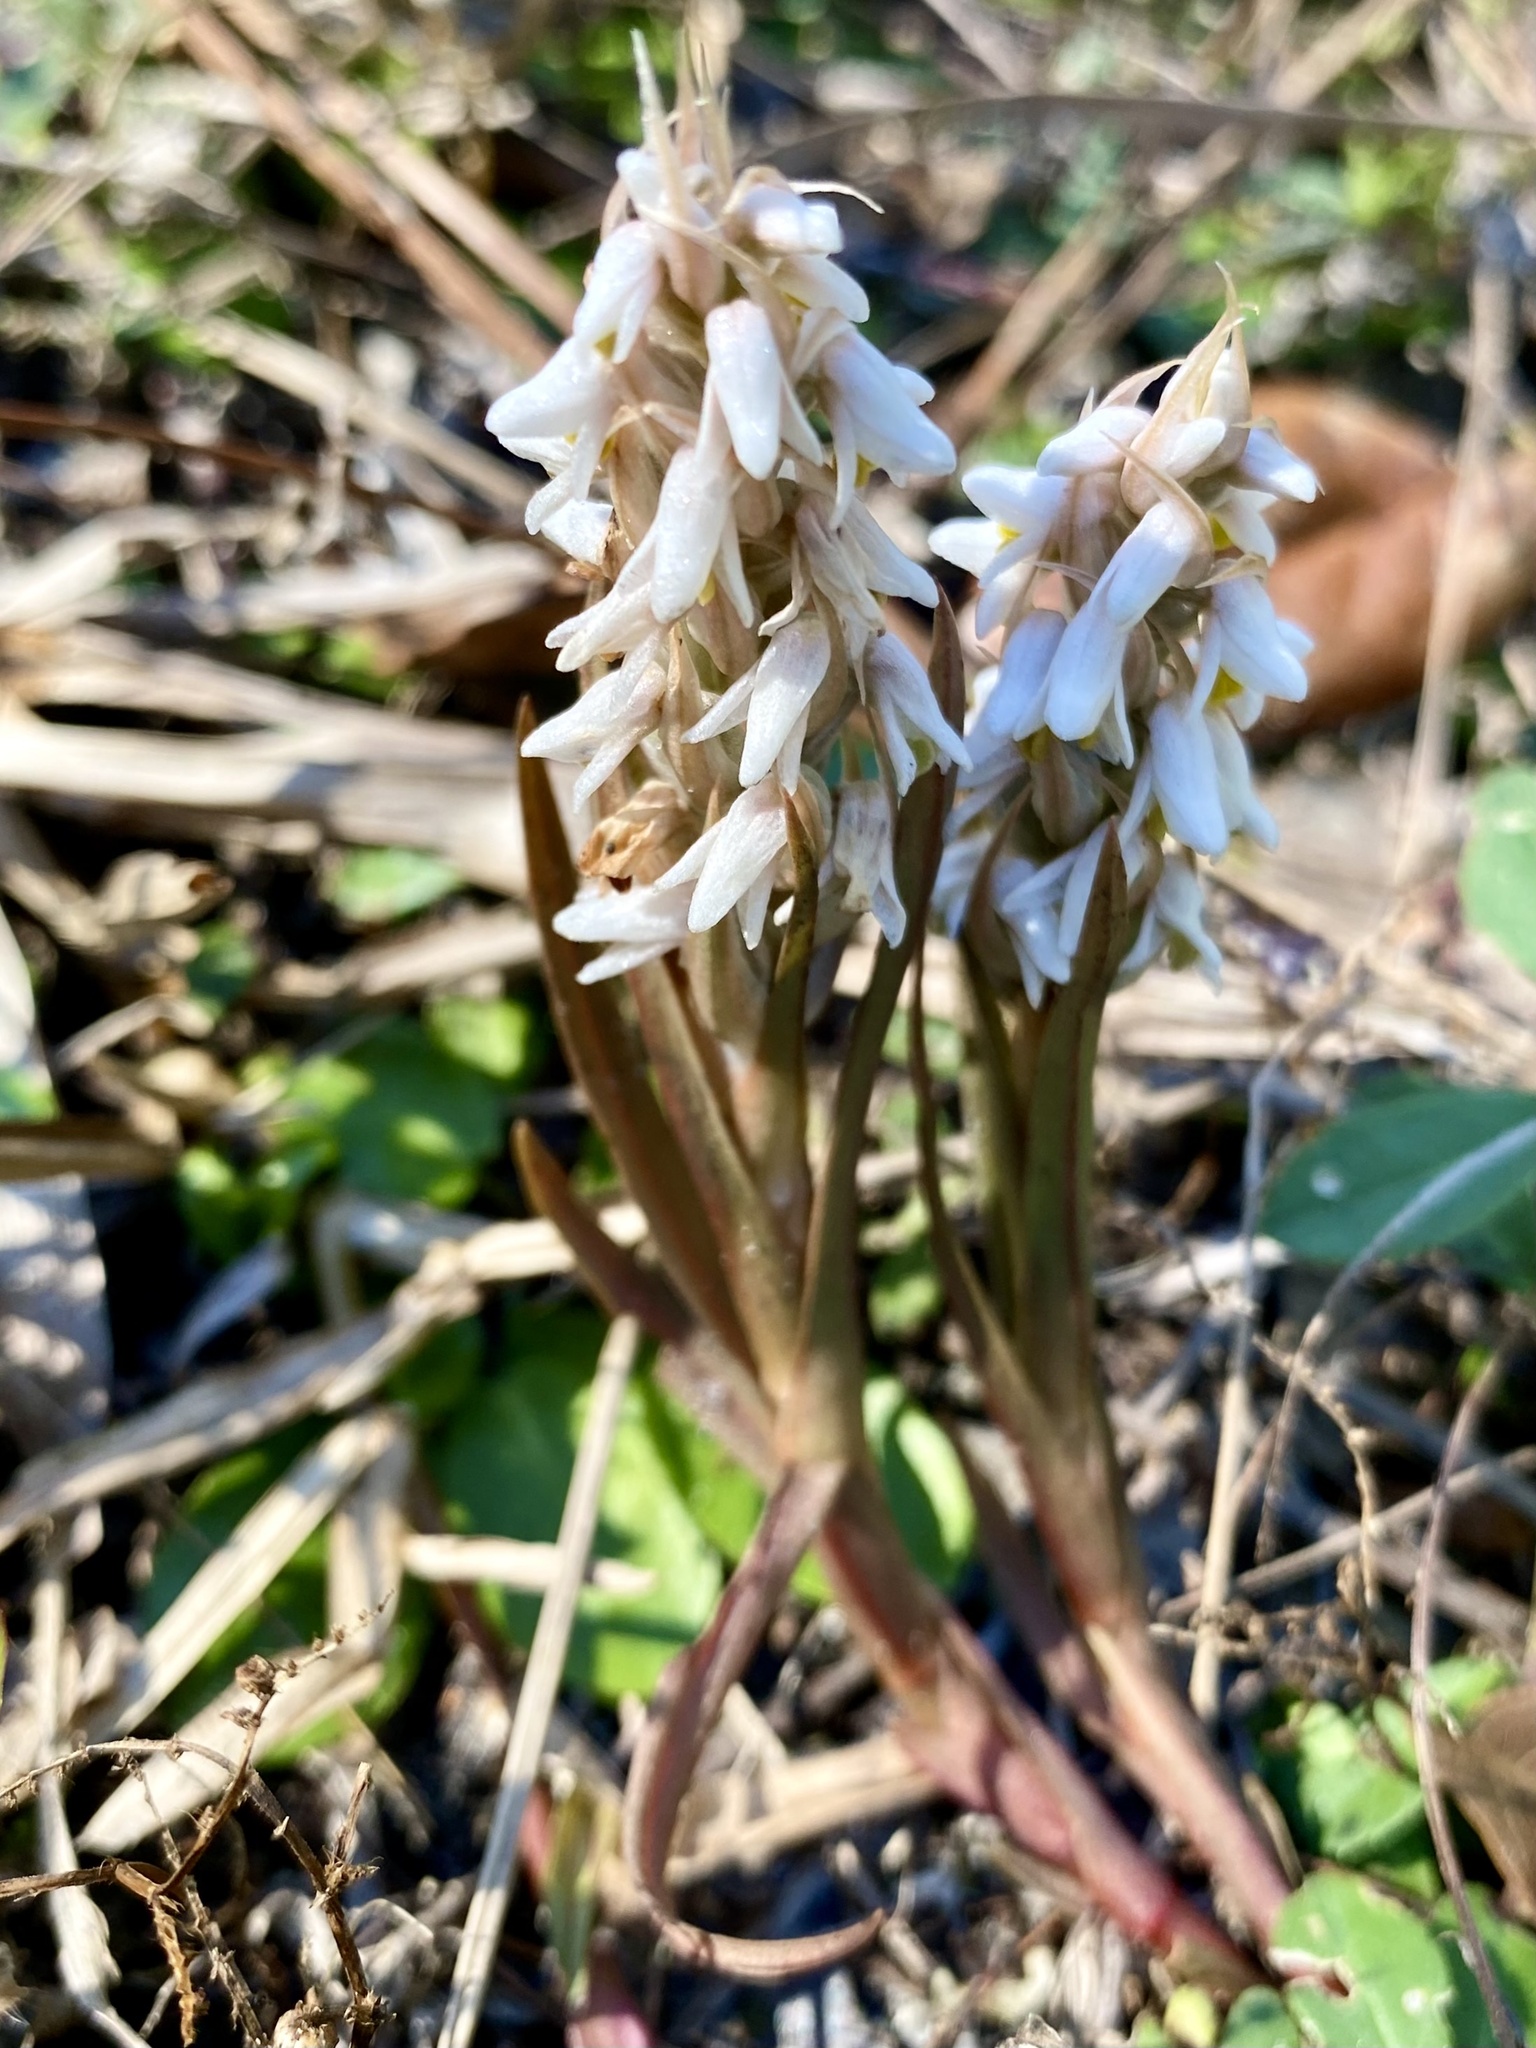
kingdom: Plantae
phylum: Tracheophyta
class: Liliopsida
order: Asparagales
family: Orchidaceae
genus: Zeuxine
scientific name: Zeuxine strateumatica
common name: Soldier's orchid
